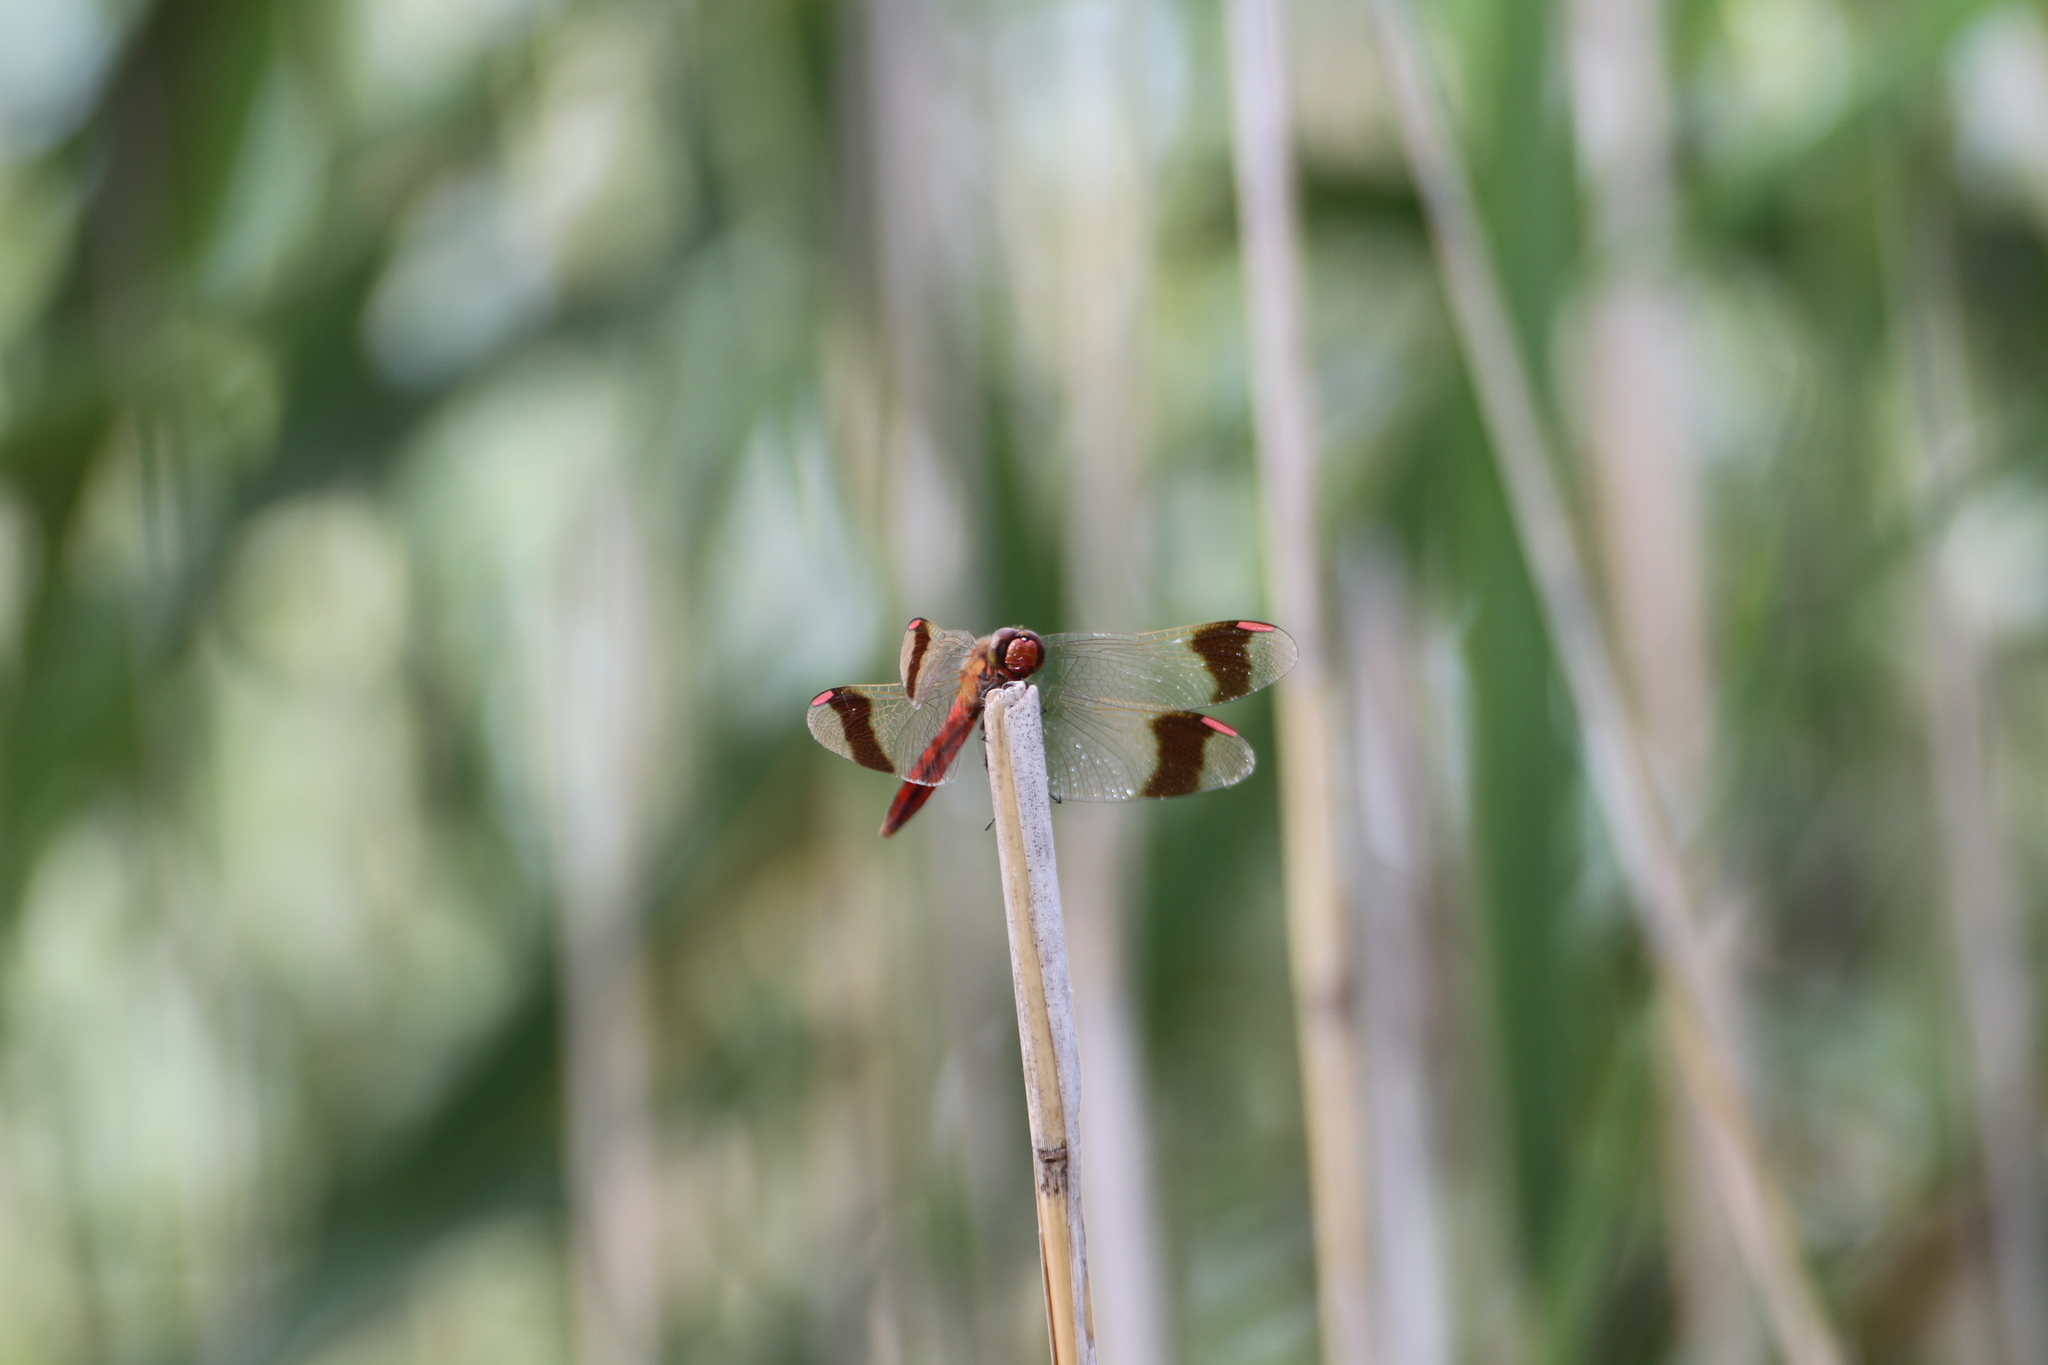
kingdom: Animalia
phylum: Arthropoda
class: Insecta
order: Odonata
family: Libellulidae
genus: Sympetrum
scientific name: Sympetrum pedemontanum
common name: Banded darter
